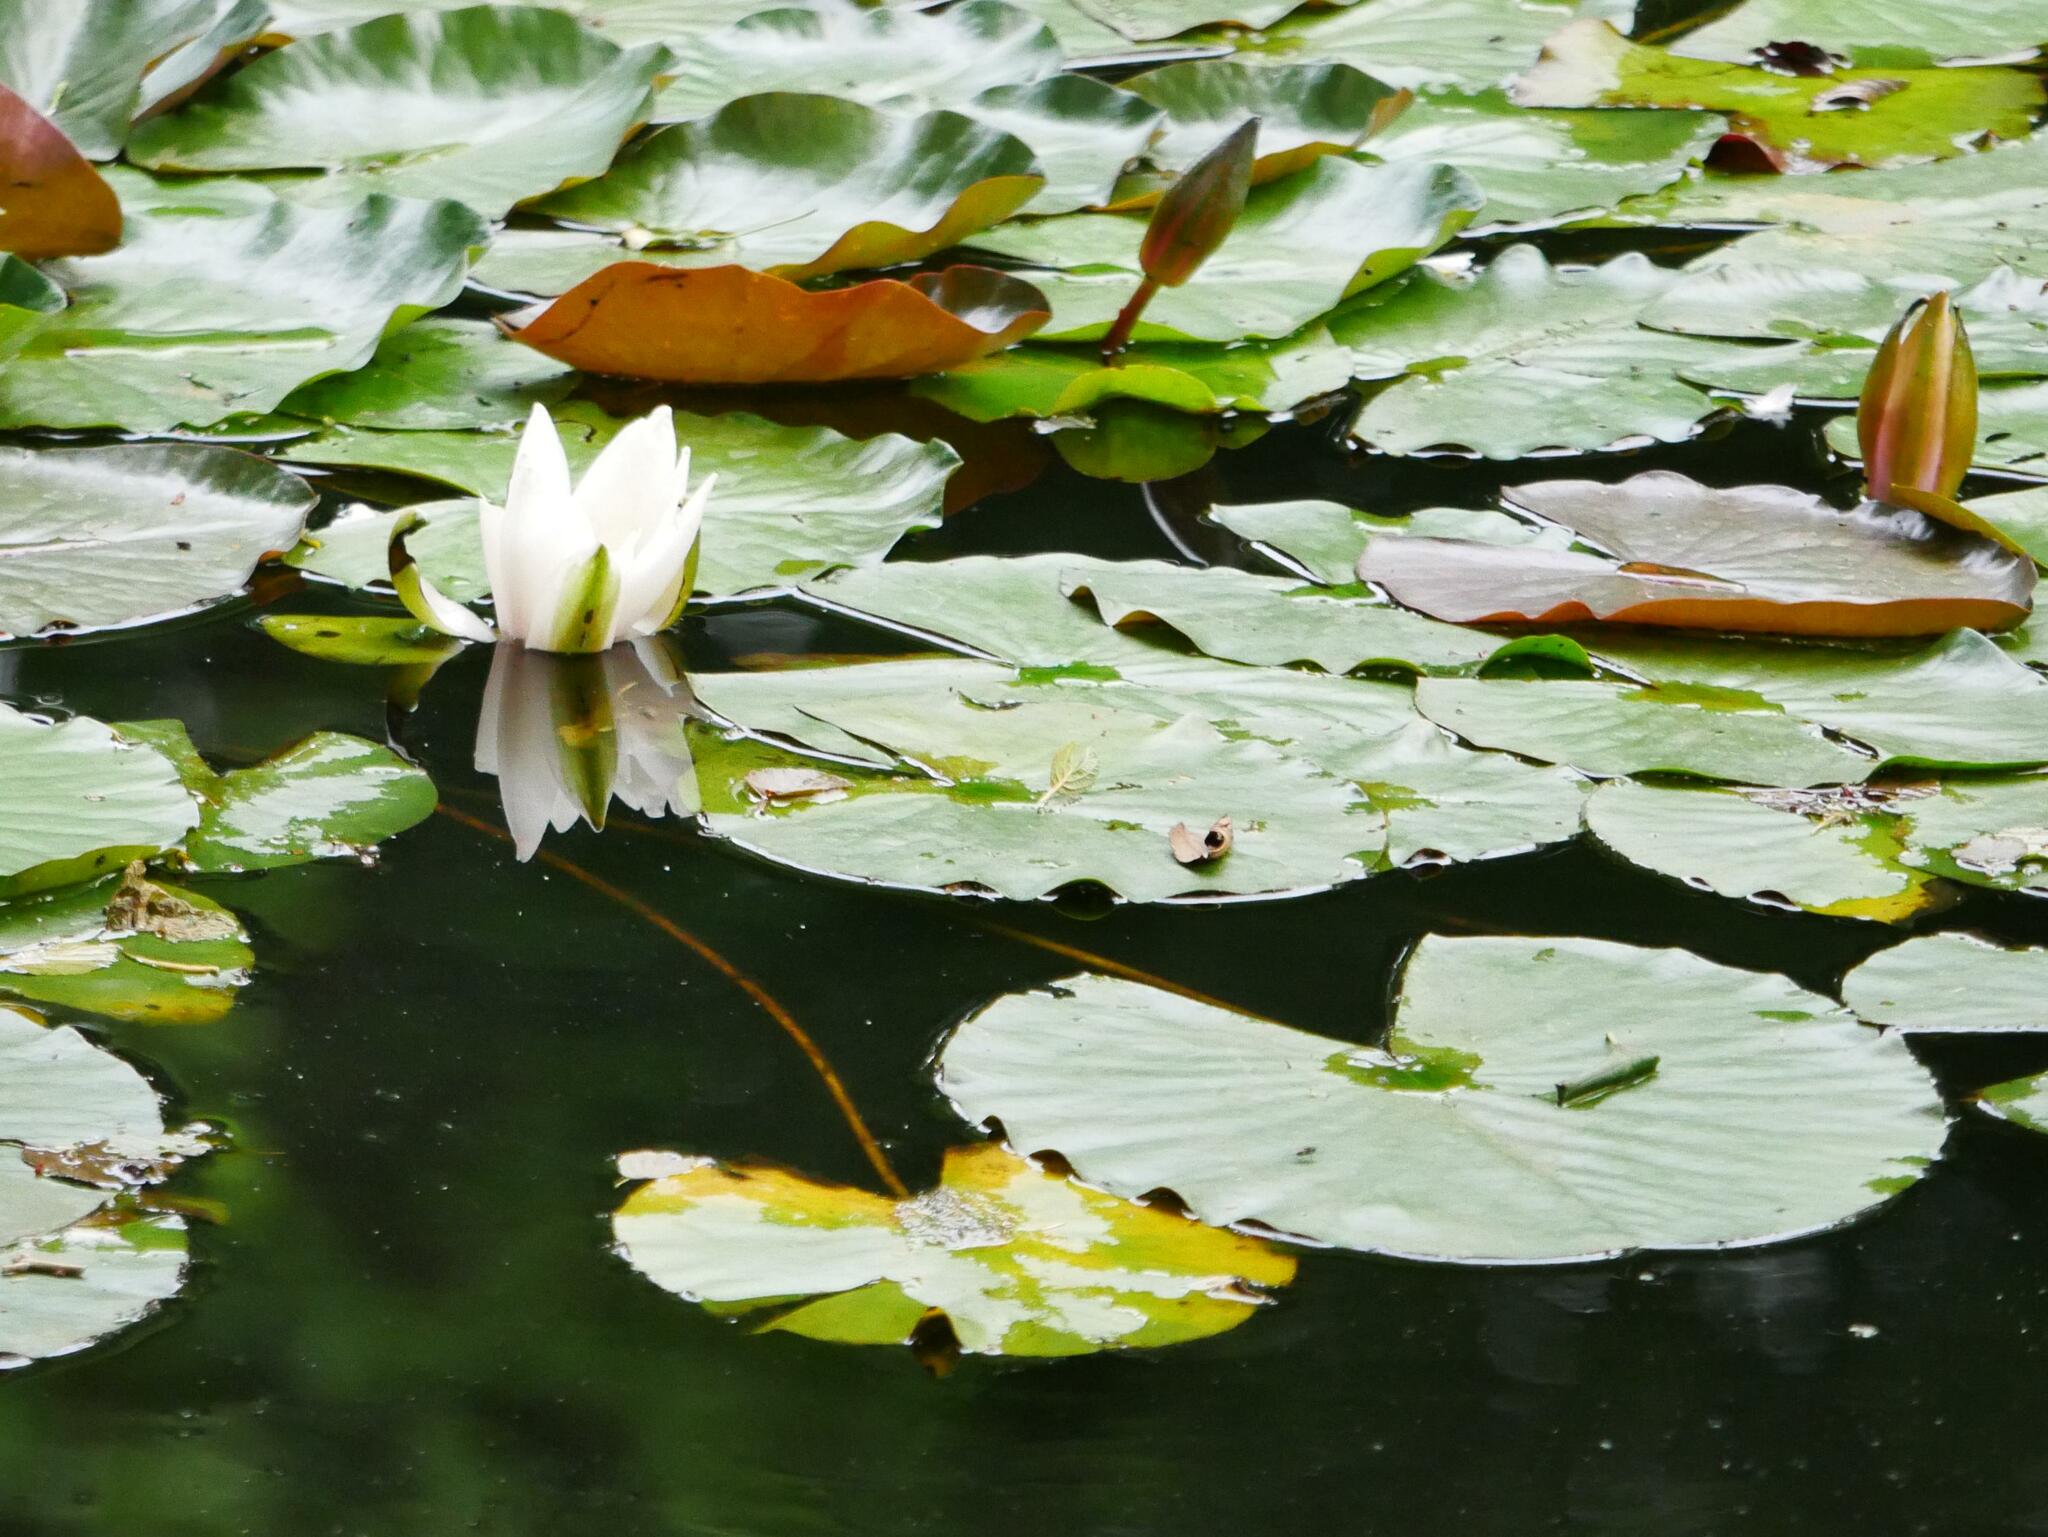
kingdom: Plantae
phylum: Tracheophyta
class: Magnoliopsida
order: Nymphaeales
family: Nymphaeaceae
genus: Nymphaea
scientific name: Nymphaea alba
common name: White water-lily
